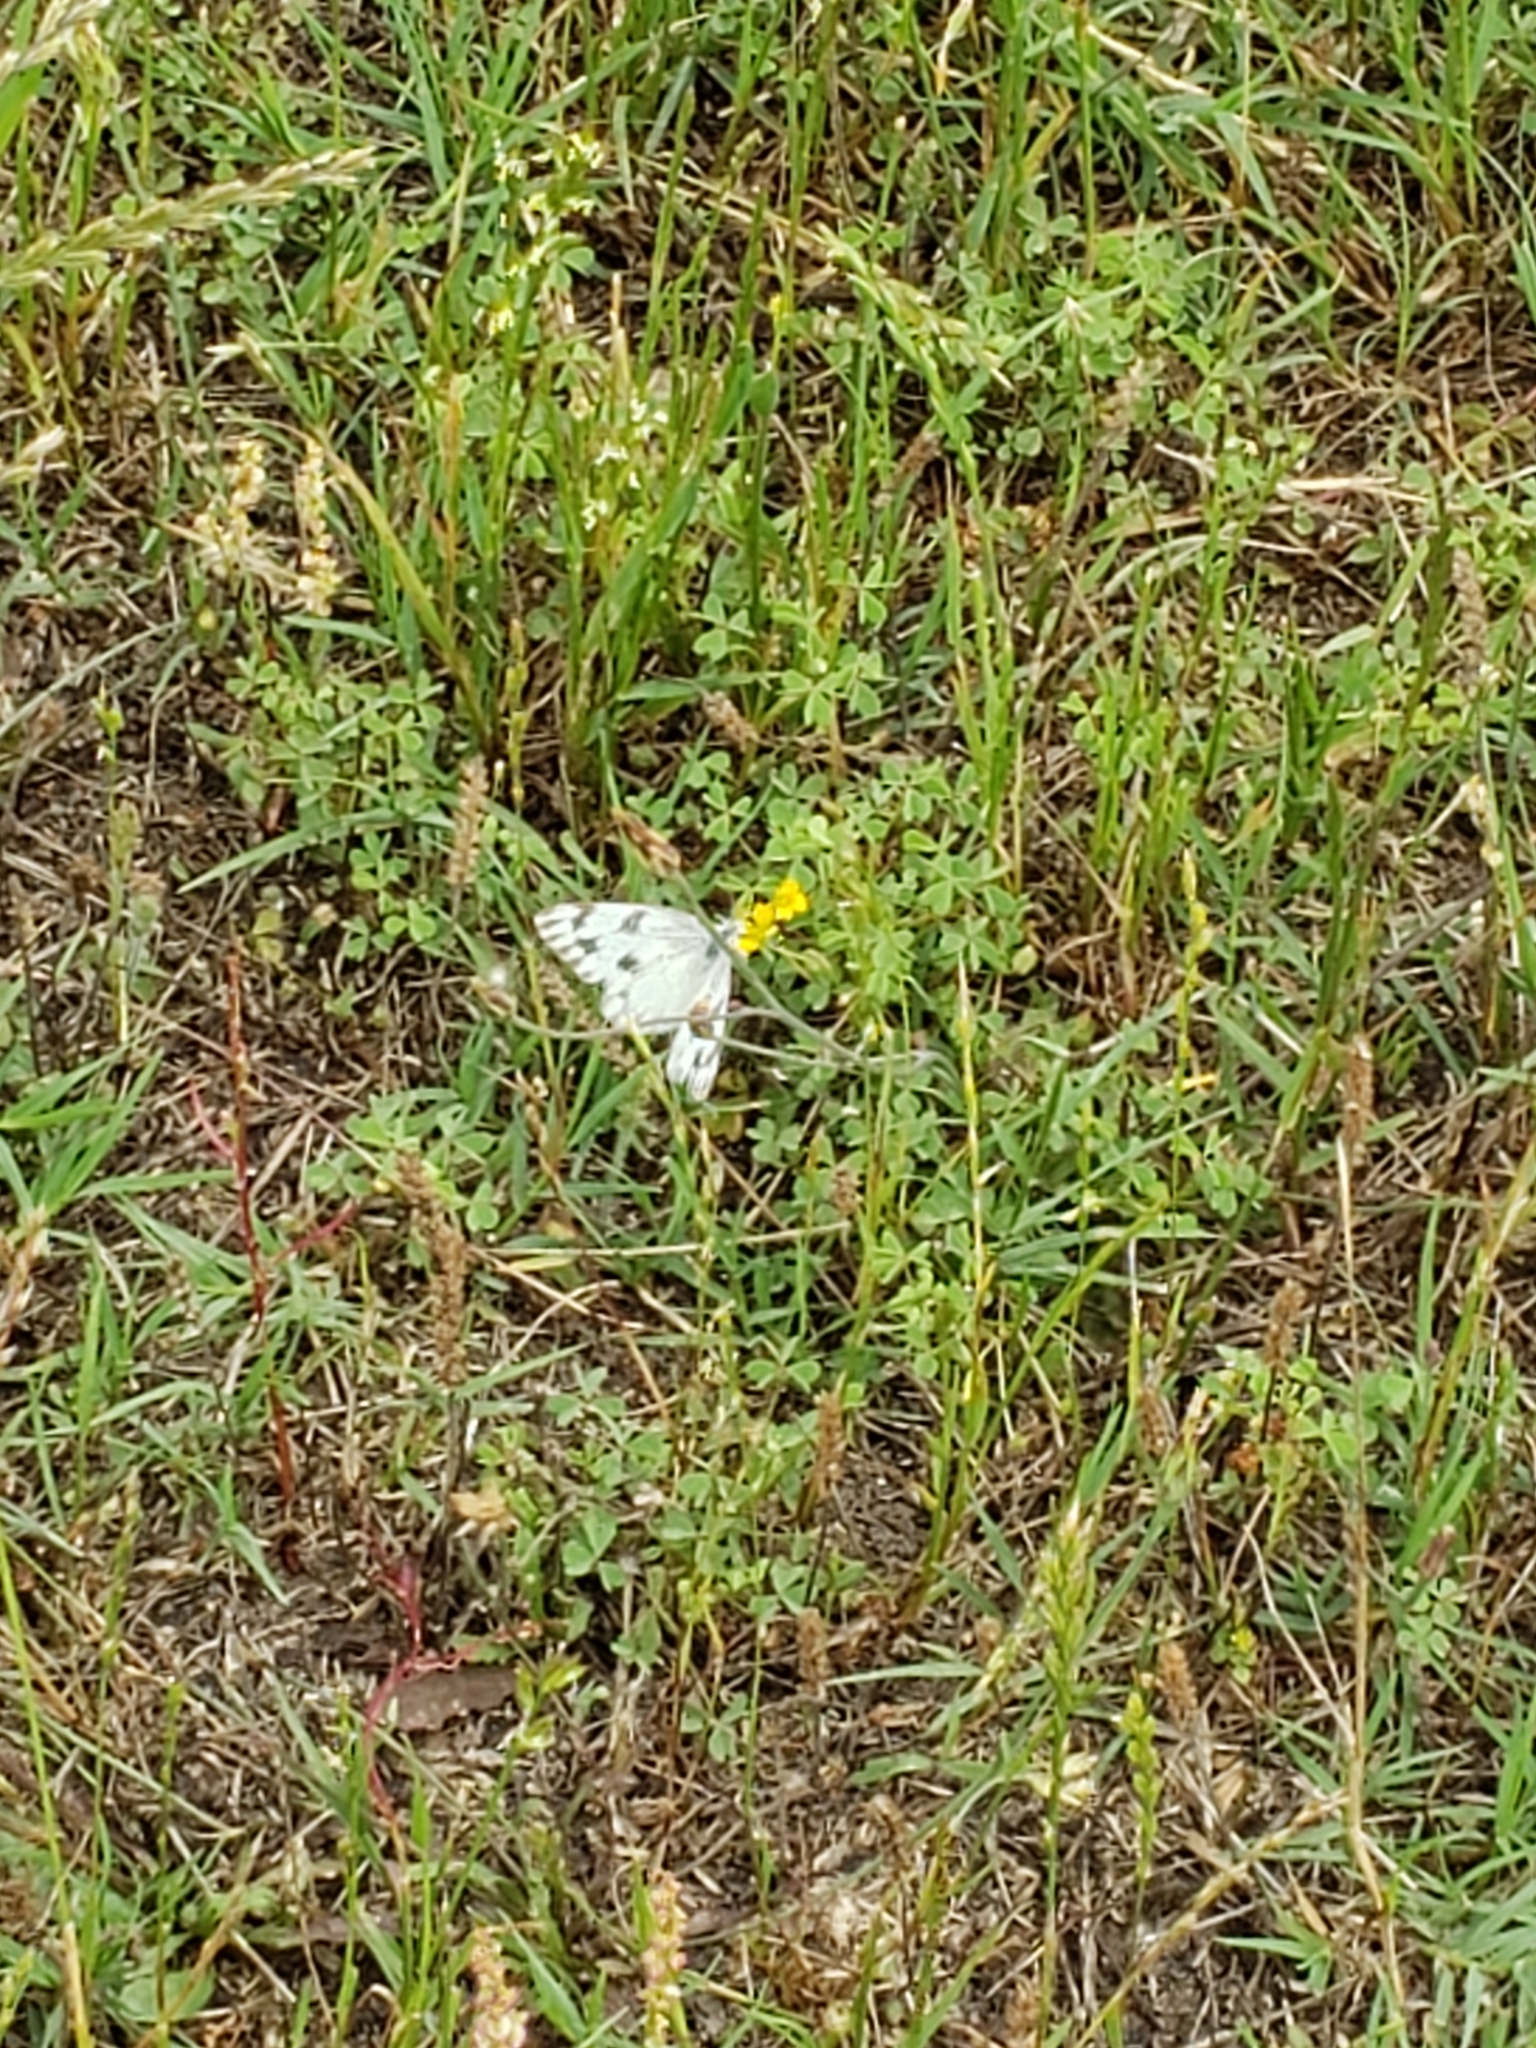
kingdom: Animalia
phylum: Arthropoda
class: Insecta
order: Lepidoptera
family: Pieridae
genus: Pontia
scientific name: Pontia protodice
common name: Checkered white
